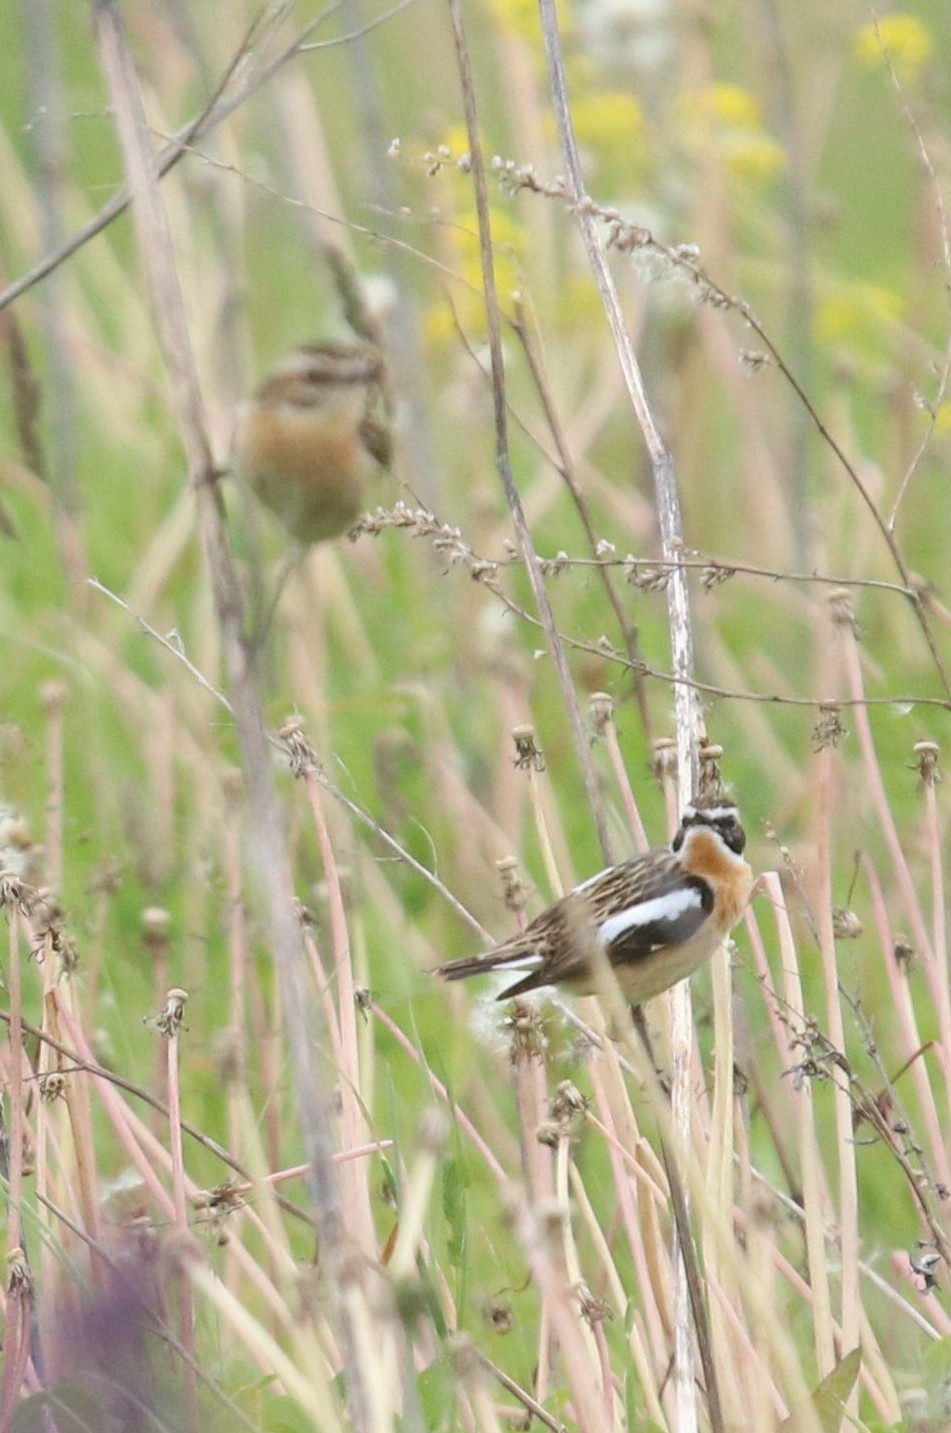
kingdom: Animalia
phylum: Chordata
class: Aves
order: Passeriformes
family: Muscicapidae
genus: Saxicola
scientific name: Saxicola rubetra
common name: Whinchat
